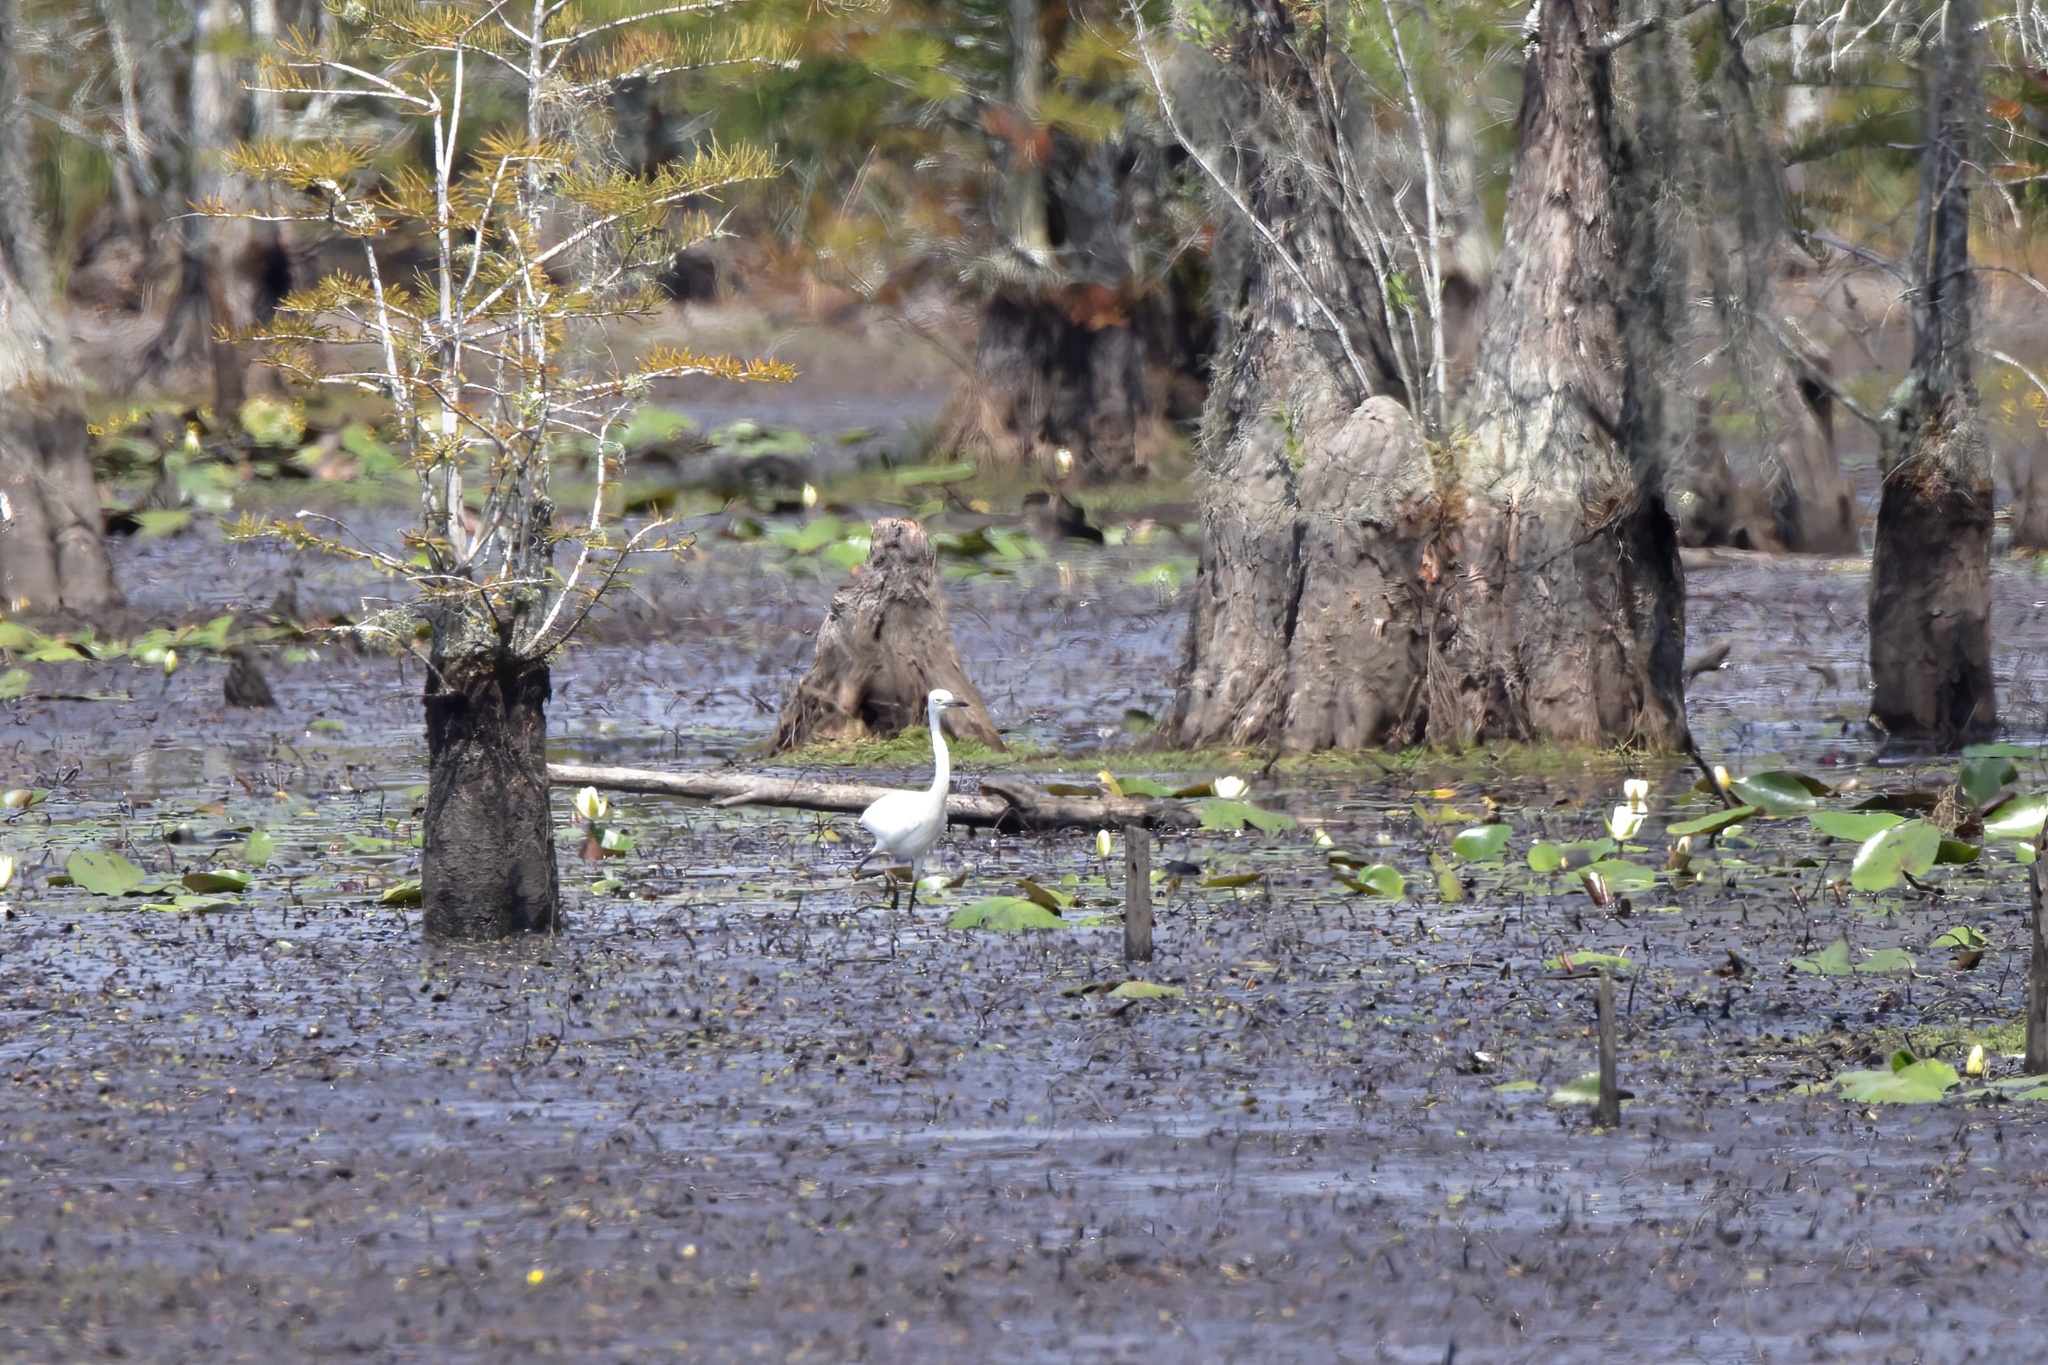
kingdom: Animalia
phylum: Chordata
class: Aves
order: Pelecaniformes
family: Ardeidae
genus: Egretta
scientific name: Egretta thula
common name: Snowy egret
